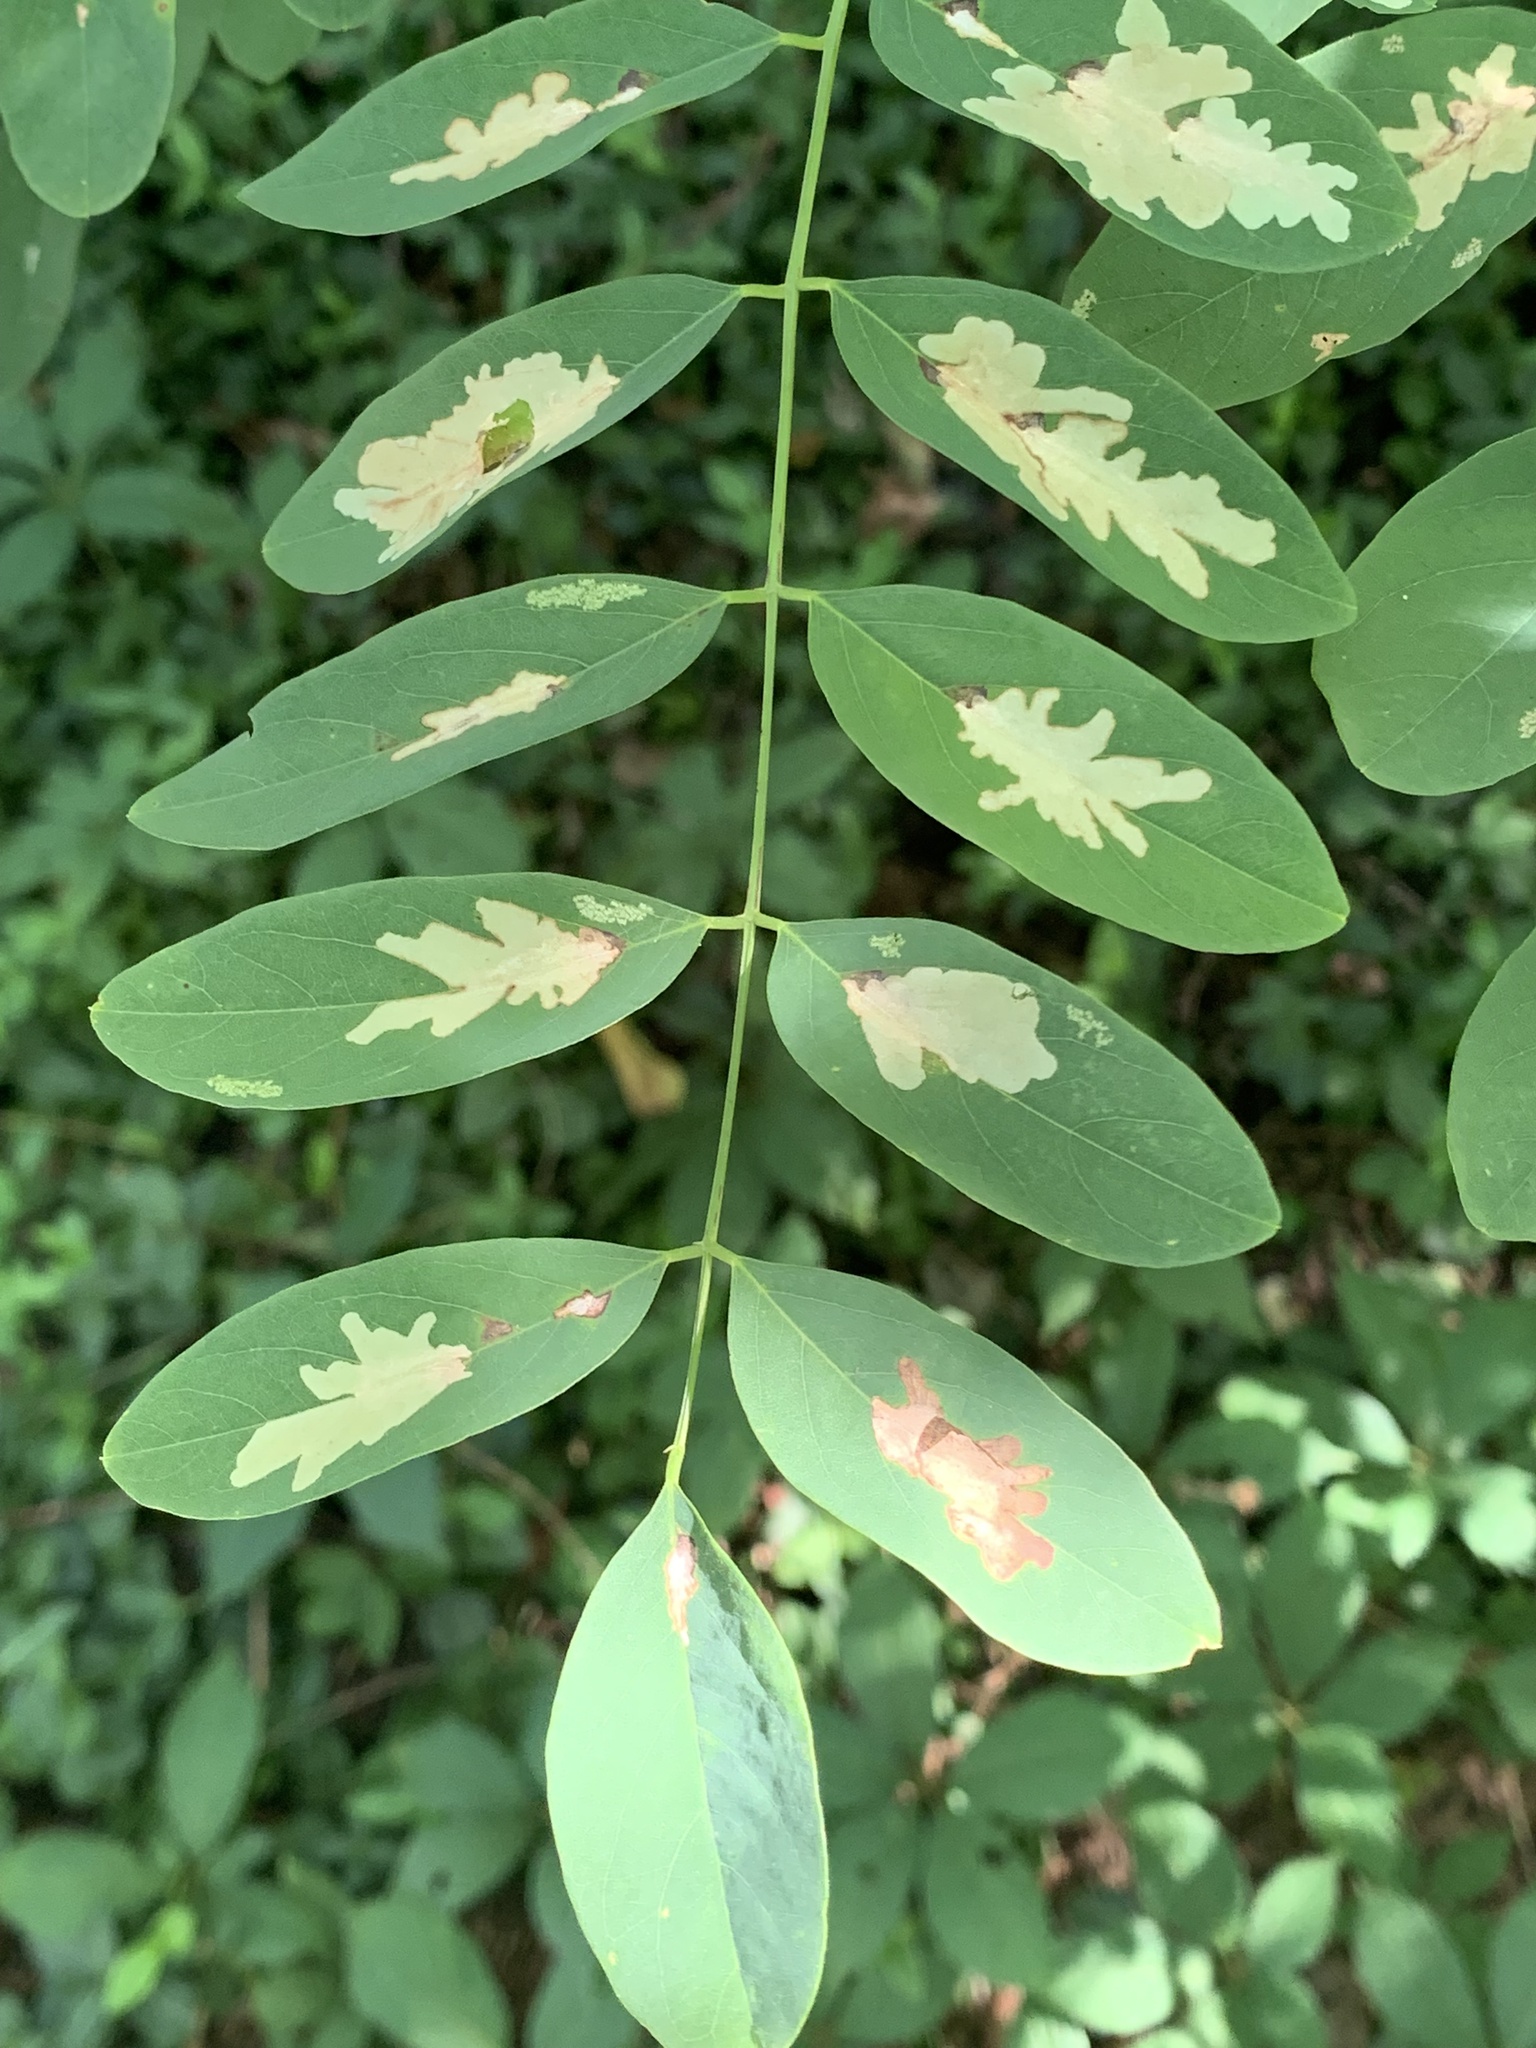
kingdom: Animalia
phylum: Arthropoda
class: Insecta
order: Lepidoptera
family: Gracillariidae
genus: Parectopa
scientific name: Parectopa robiniella
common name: Locust digitate leafminer
